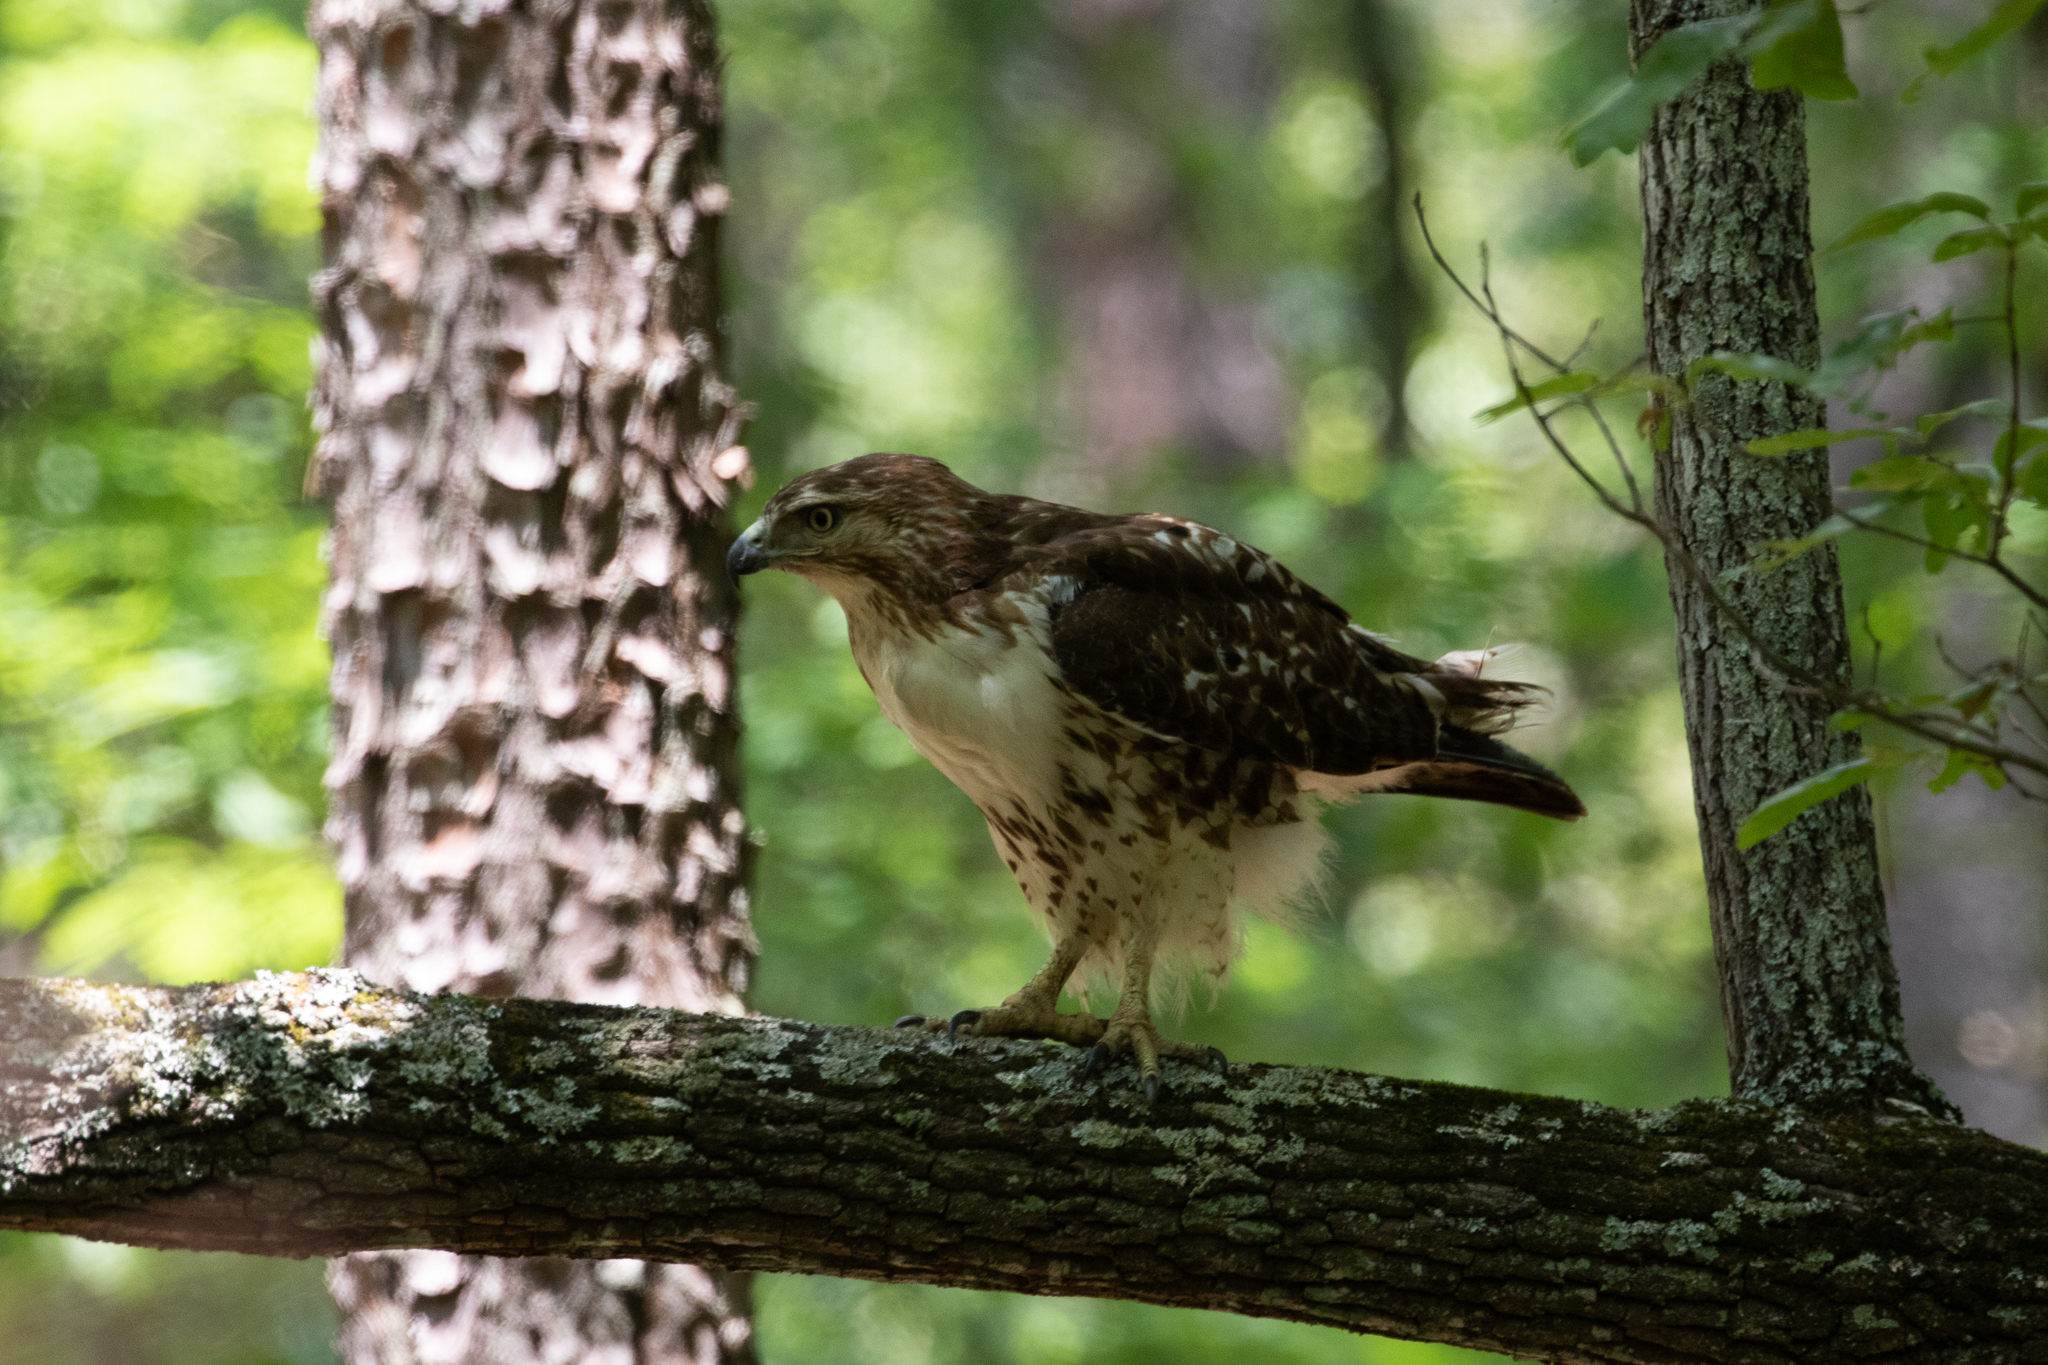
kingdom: Animalia
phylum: Chordata
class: Aves
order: Accipitriformes
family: Accipitridae
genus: Buteo
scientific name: Buteo jamaicensis
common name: Red-tailed hawk
